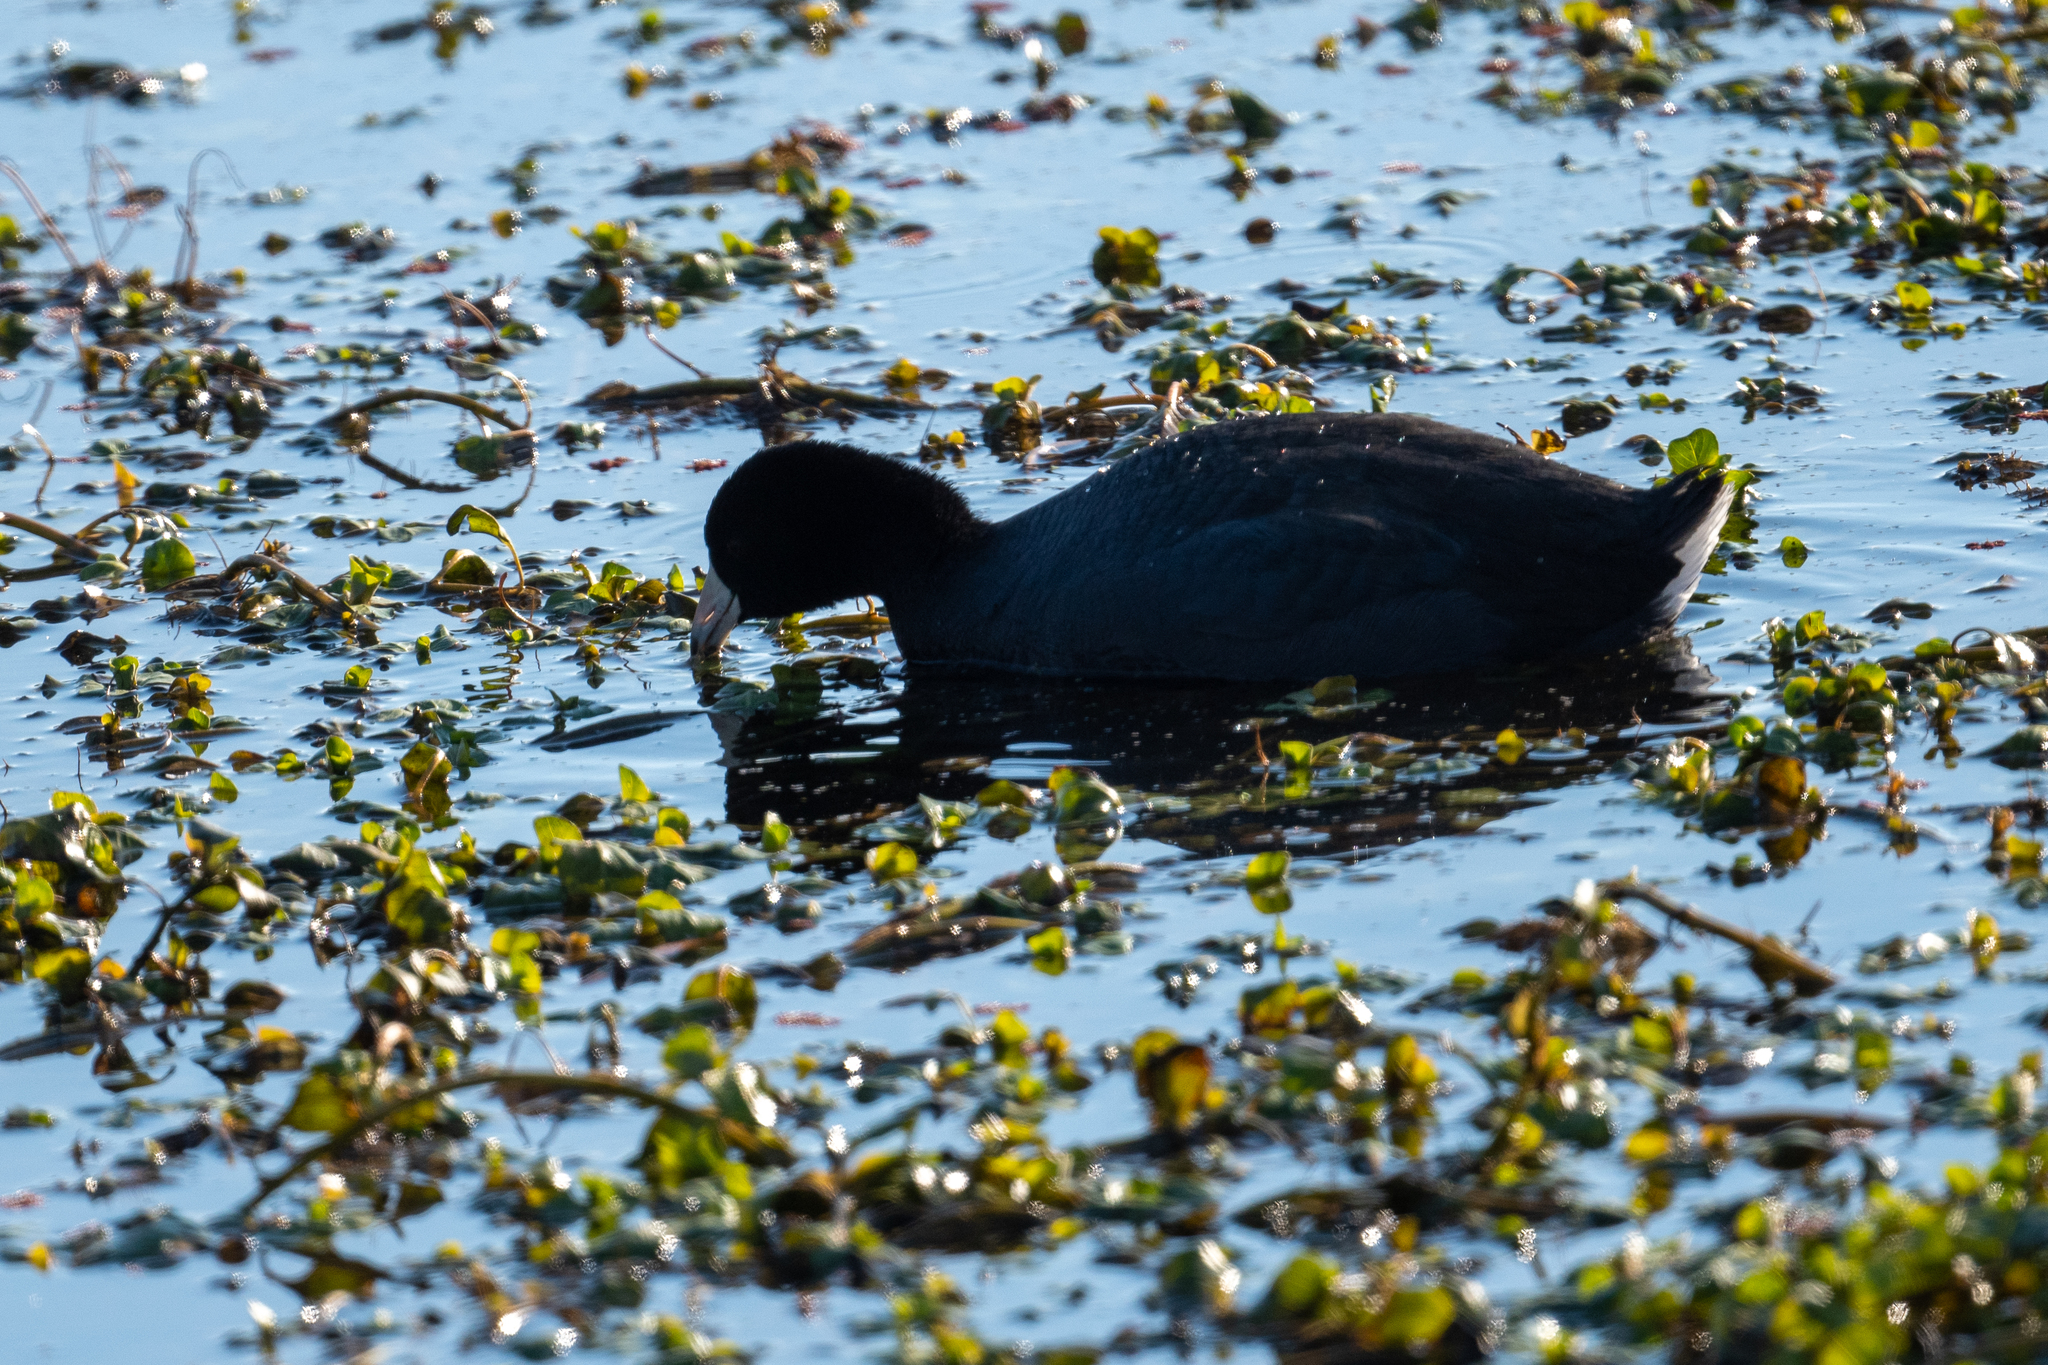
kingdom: Animalia
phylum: Chordata
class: Aves
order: Gruiformes
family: Rallidae
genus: Fulica
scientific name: Fulica americana
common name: American coot
